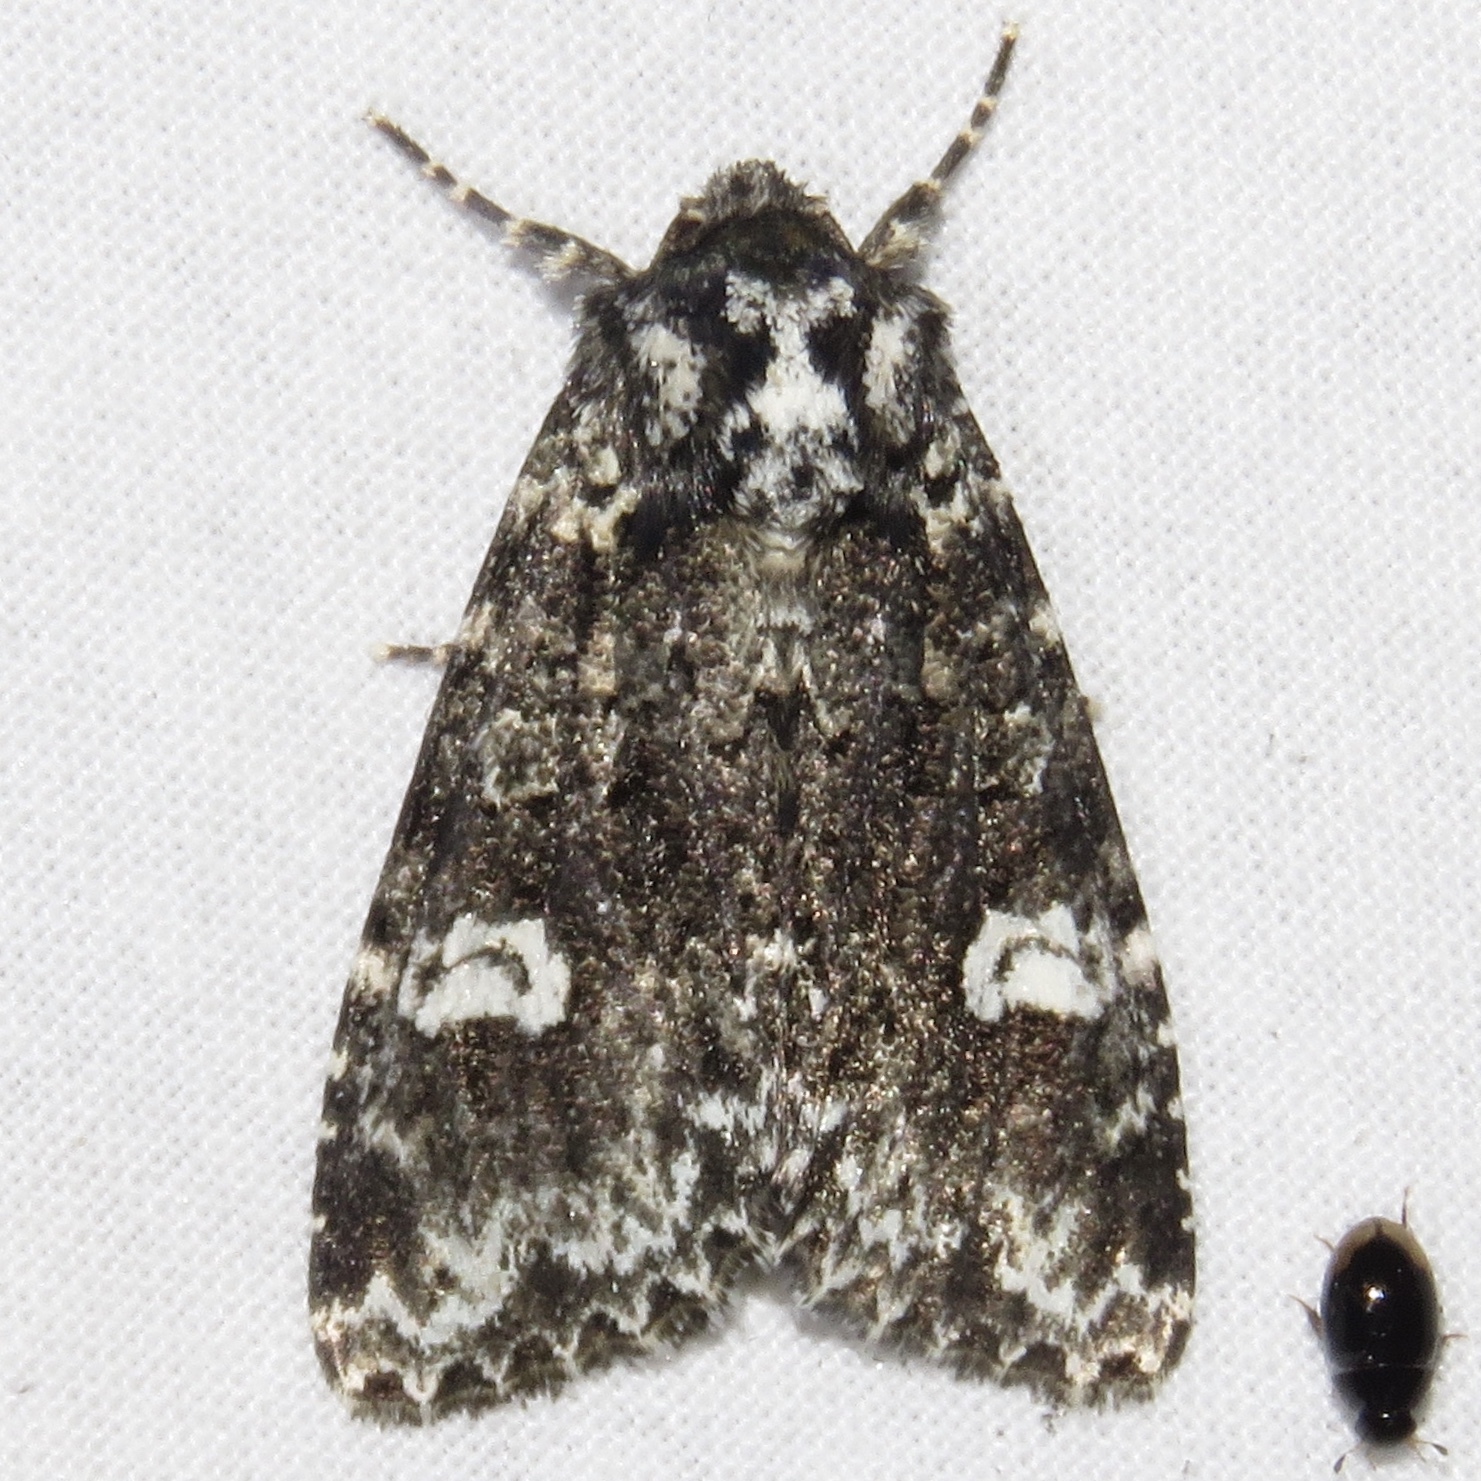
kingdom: Animalia
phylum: Arthropoda
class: Insecta
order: Lepidoptera
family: Noctuidae
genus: Melanchra
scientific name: Melanchra adjuncta
